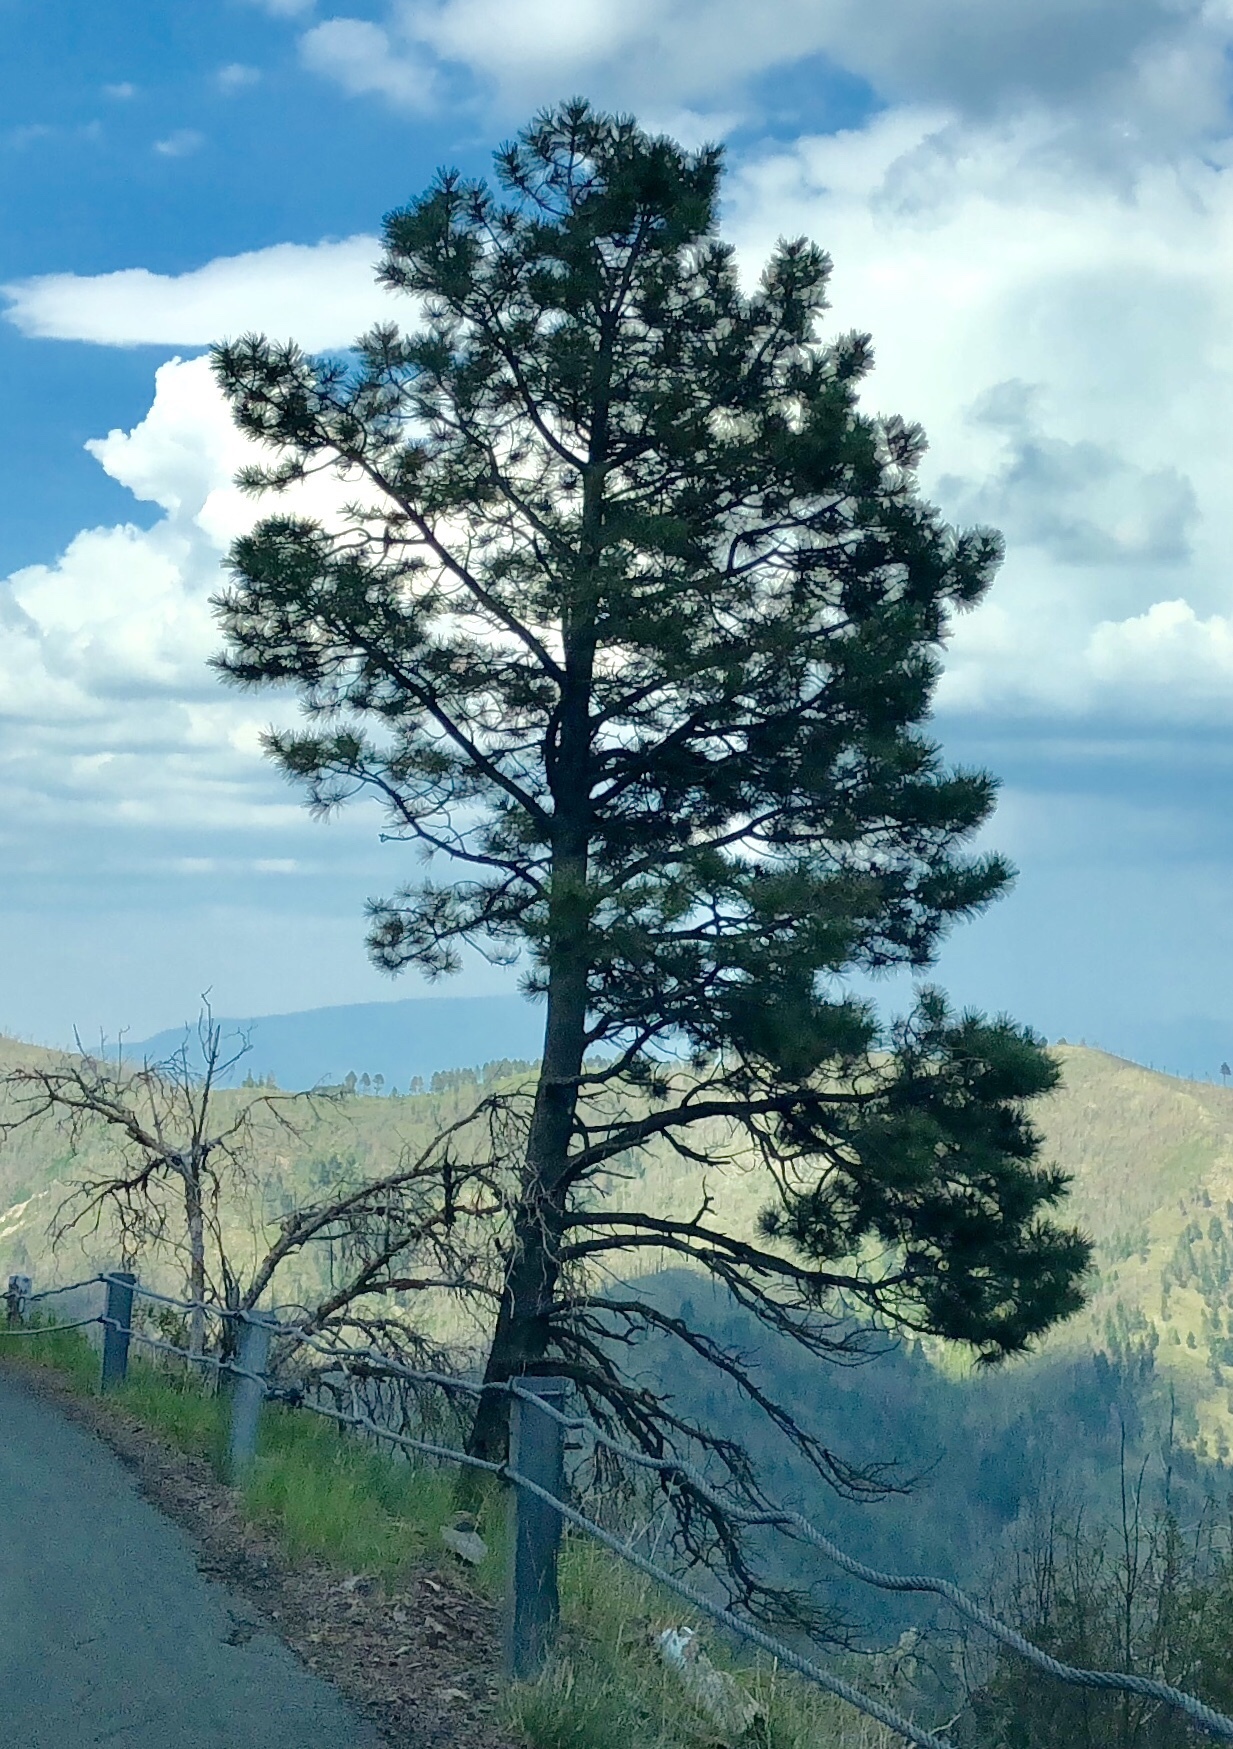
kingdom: Plantae
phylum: Tracheophyta
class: Pinopsida
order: Pinales
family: Pinaceae
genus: Pinus
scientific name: Pinus ponderosa
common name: Western yellow-pine
